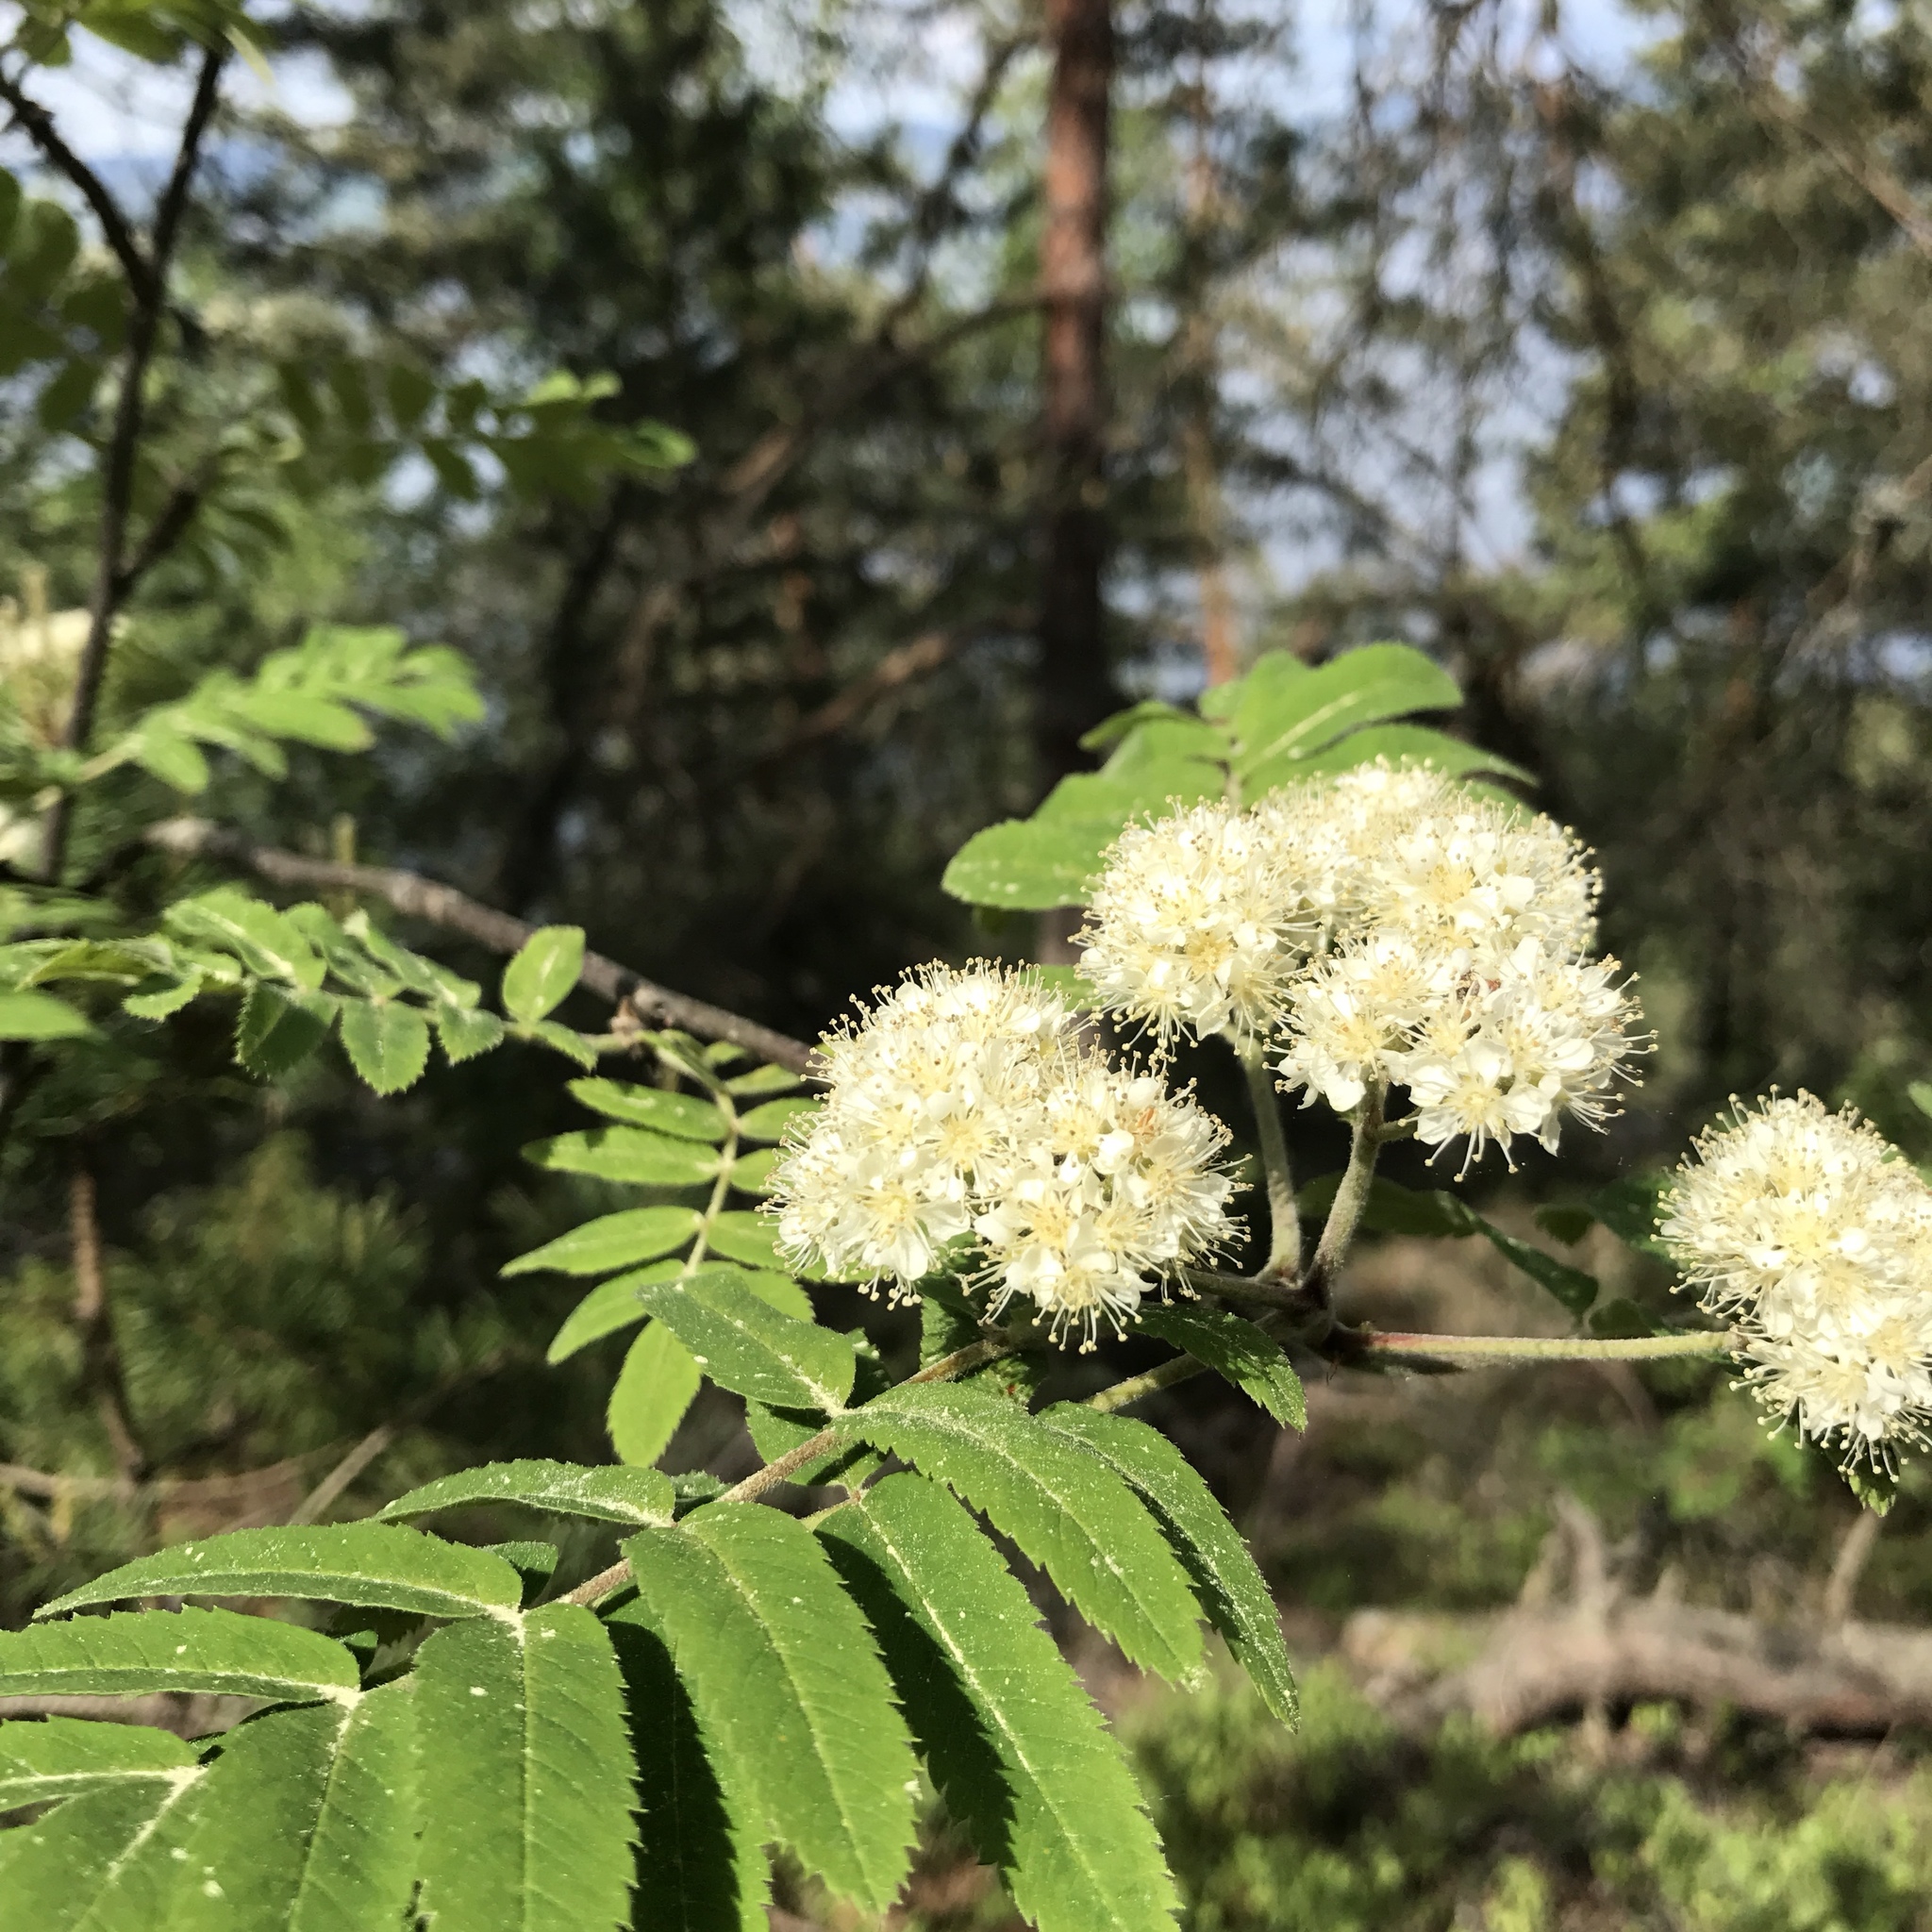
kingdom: Plantae
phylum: Tracheophyta
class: Magnoliopsida
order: Rosales
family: Rosaceae
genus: Sorbus
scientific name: Sorbus aucuparia
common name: Rowan
